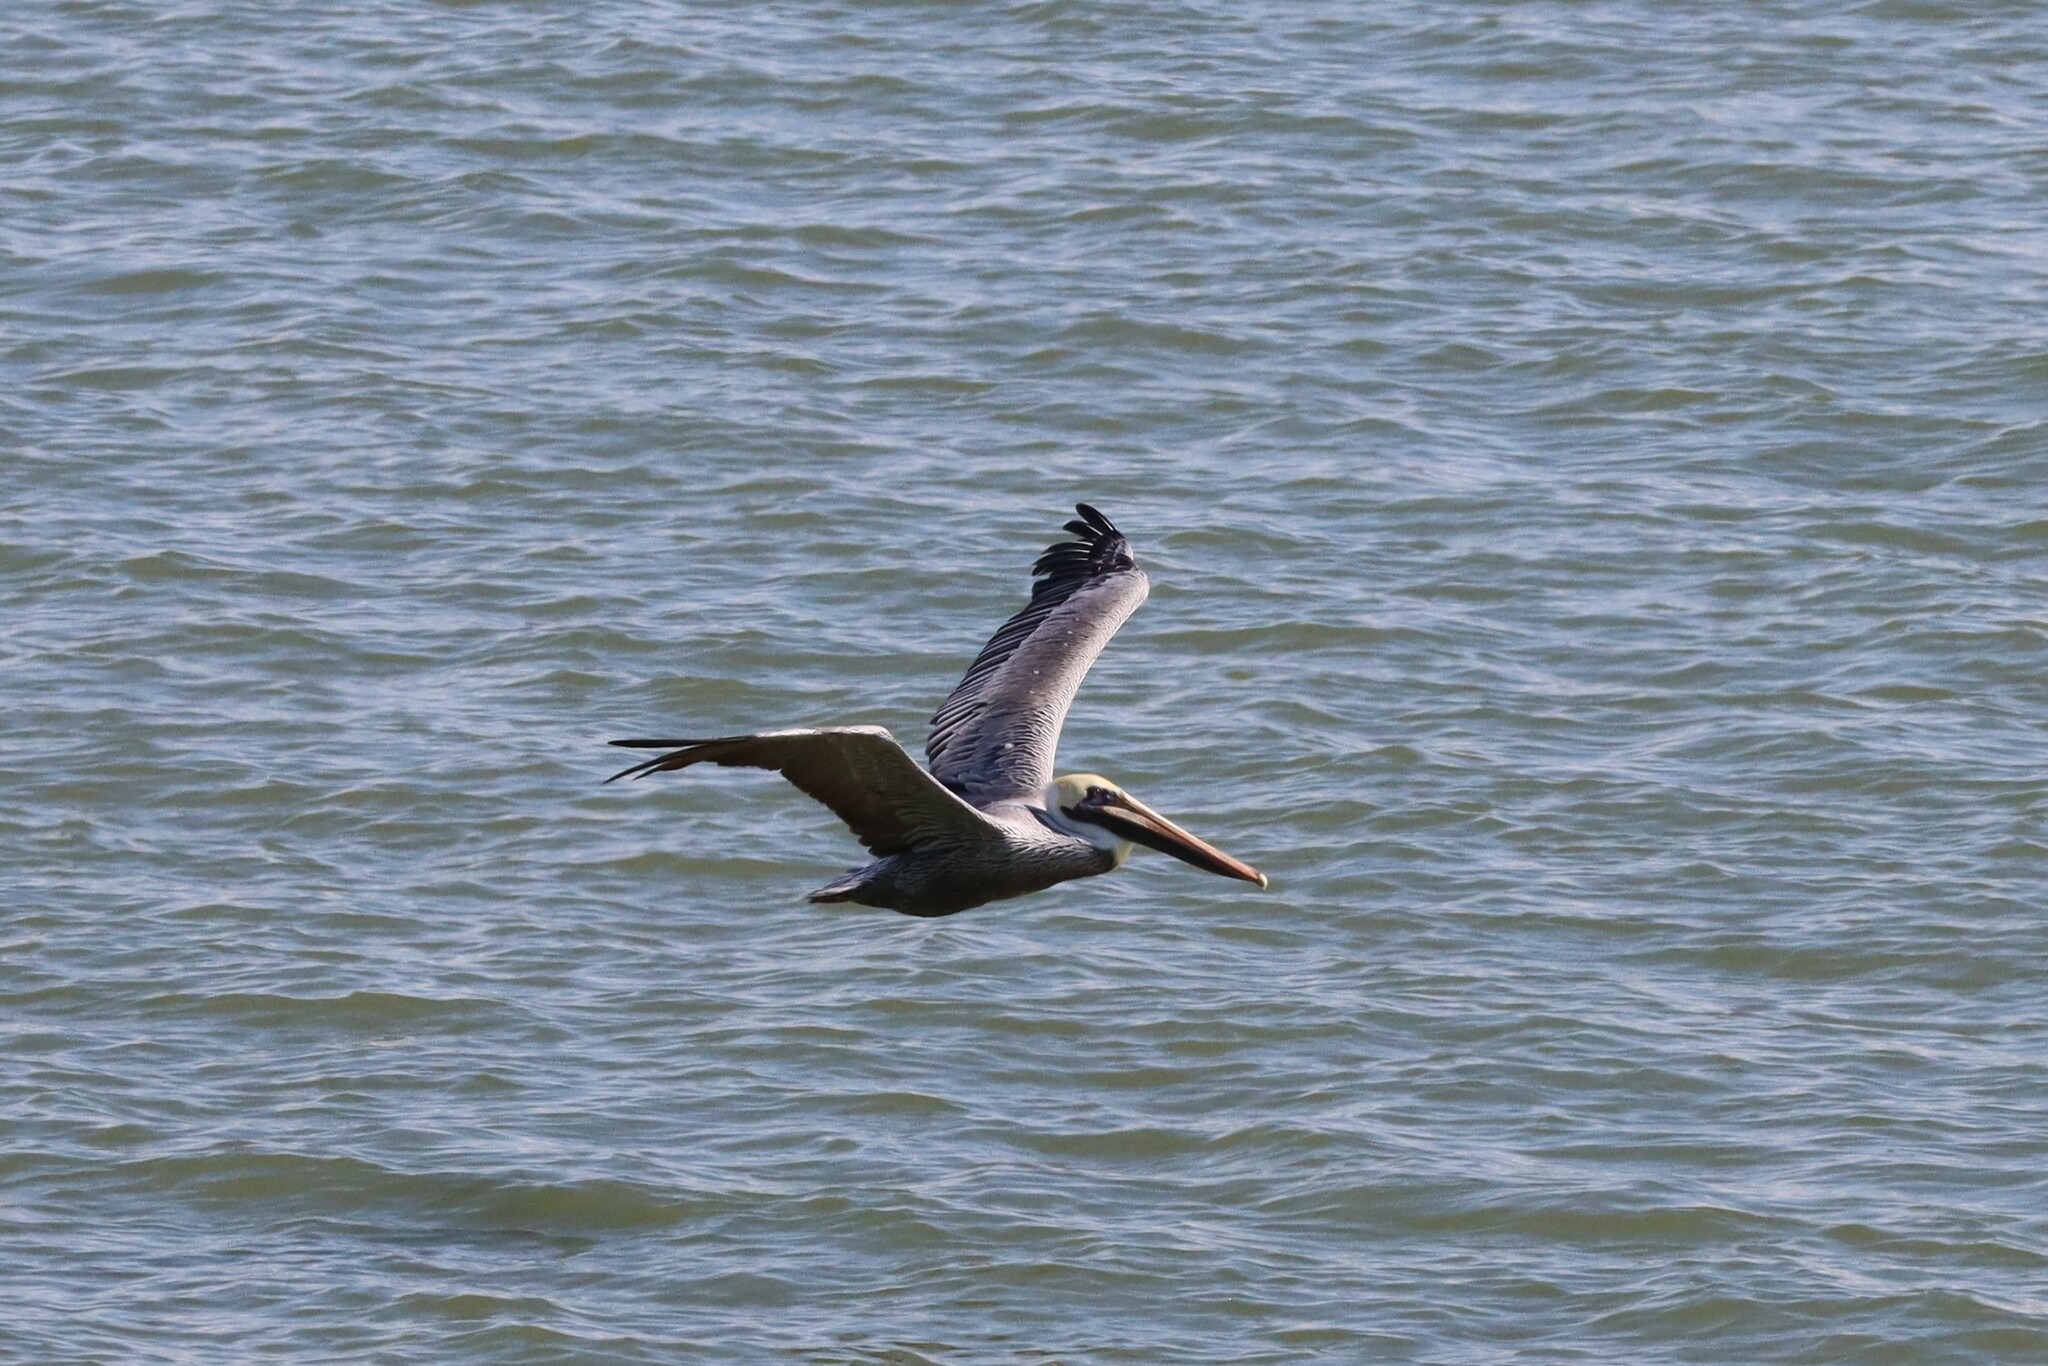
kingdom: Animalia
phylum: Chordata
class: Aves
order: Pelecaniformes
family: Pelecanidae
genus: Pelecanus
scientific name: Pelecanus occidentalis
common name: Brown pelican
